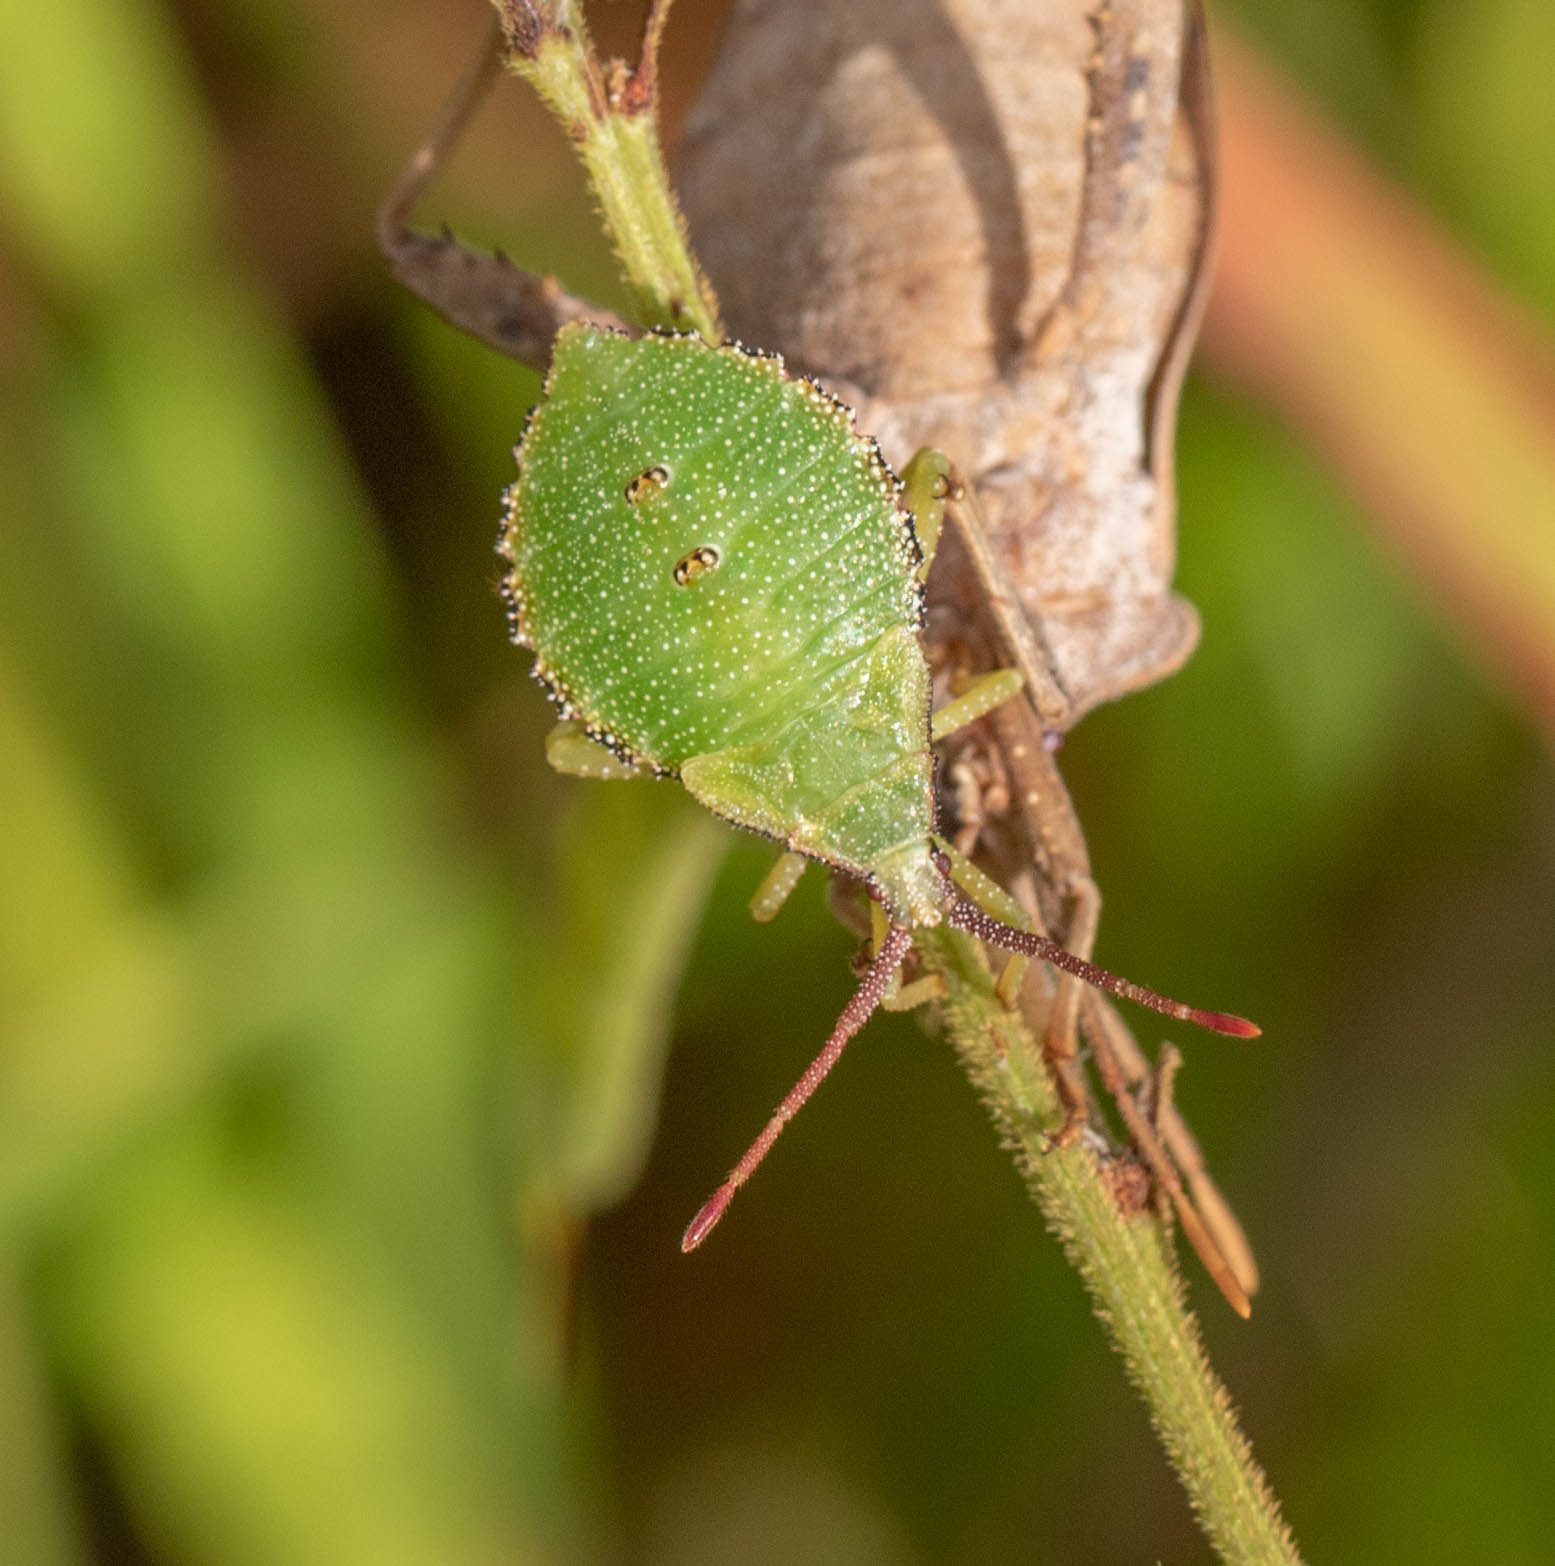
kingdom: Animalia
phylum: Arthropoda
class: Insecta
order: Hemiptera
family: Coreidae
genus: Piezogaster
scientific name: Piezogaster calcarator
